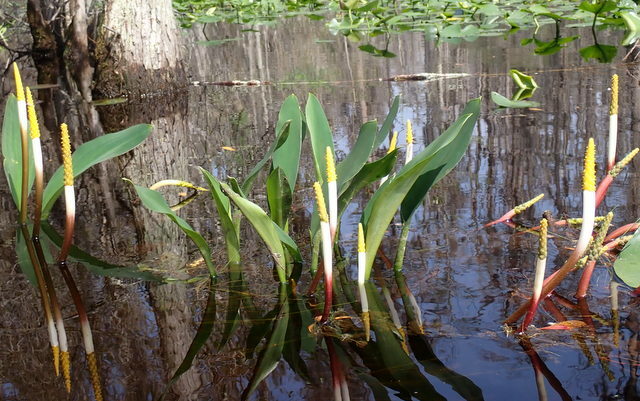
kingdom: Plantae
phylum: Tracheophyta
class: Liliopsida
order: Alismatales
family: Araceae
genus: Orontium
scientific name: Orontium aquaticum
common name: Golden-club
